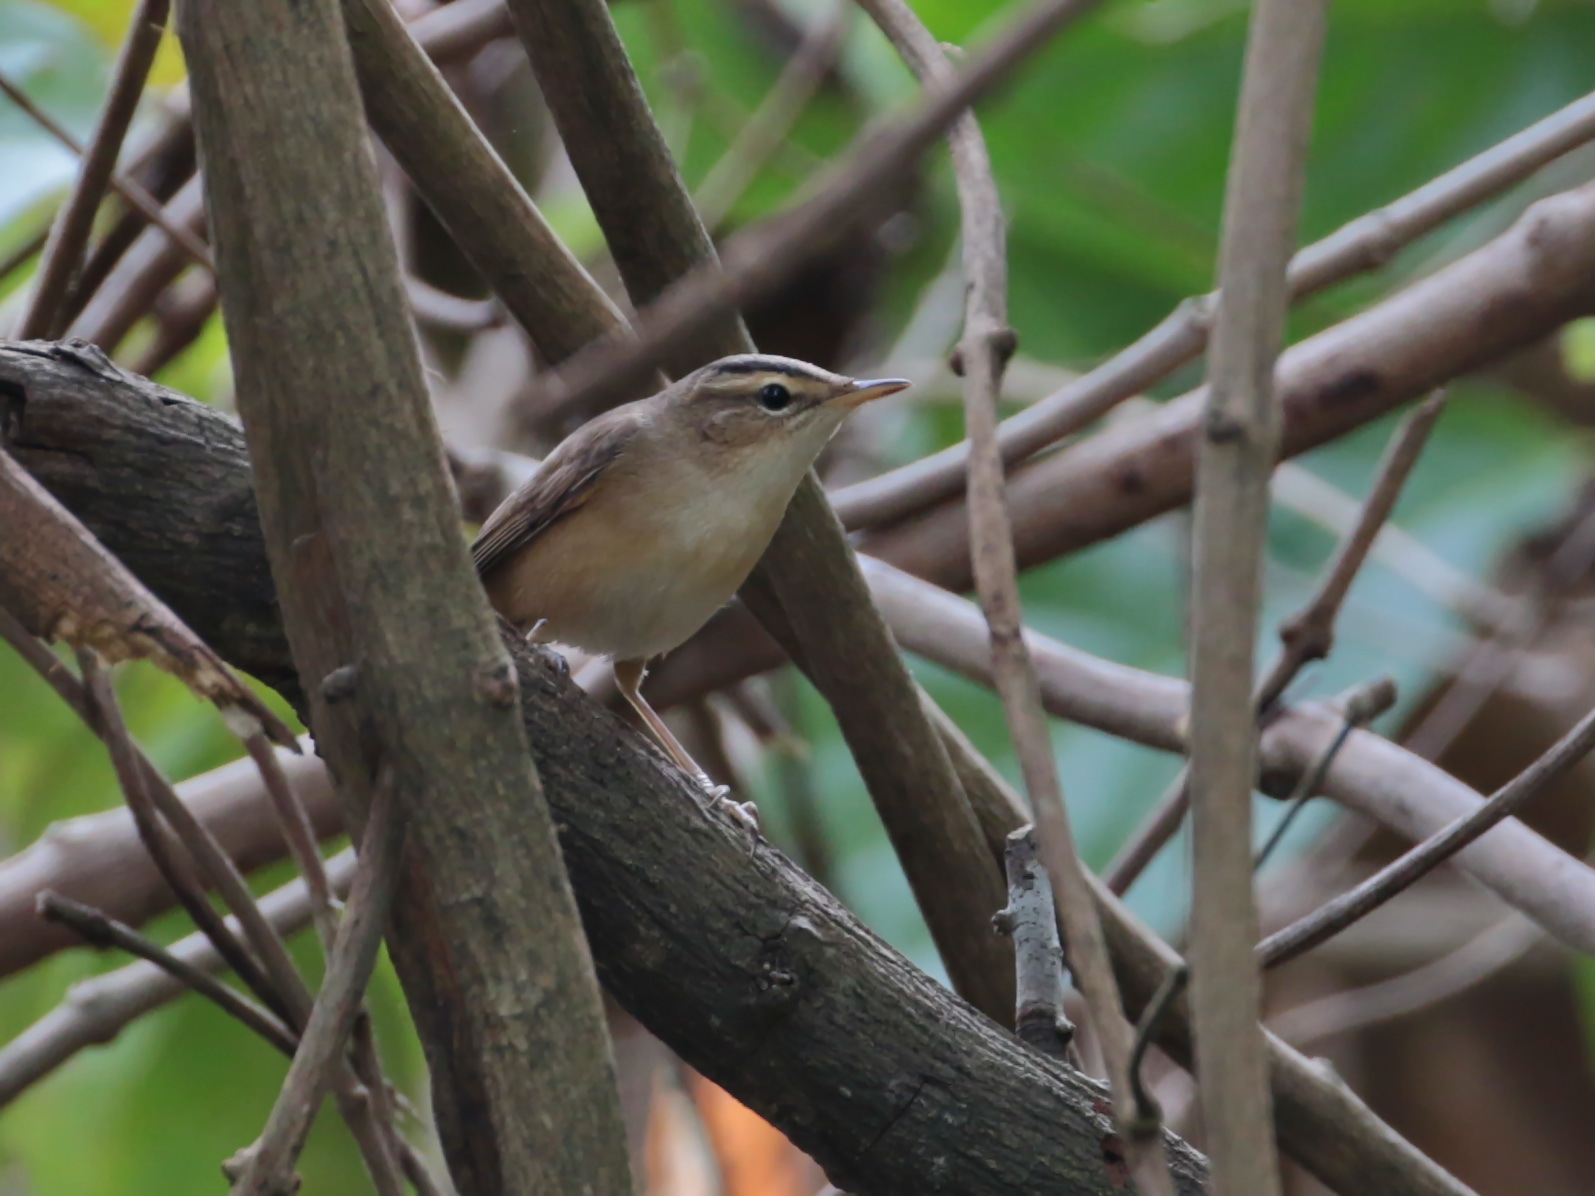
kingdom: Animalia
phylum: Chordata
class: Aves
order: Passeriformes
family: Acrocephalidae
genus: Acrocephalus
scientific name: Acrocephalus bistrigiceps
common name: Black-browed reed warbler
